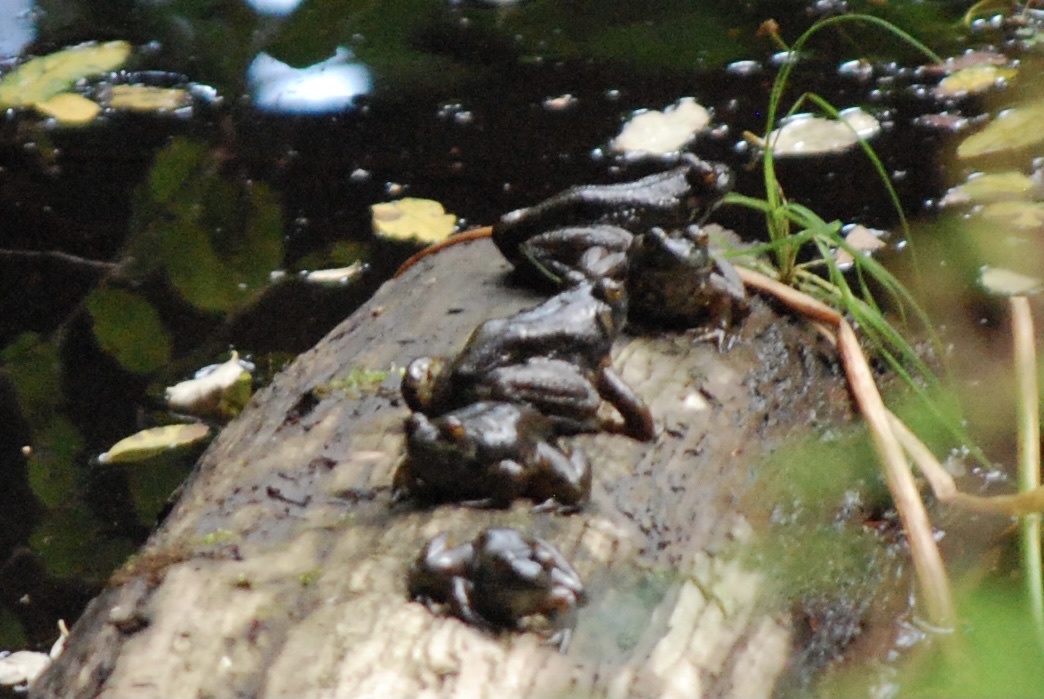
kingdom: Animalia
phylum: Chordata
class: Amphibia
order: Anura
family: Ranidae
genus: Lithobates
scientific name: Lithobates catesbeianus
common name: American bullfrog
